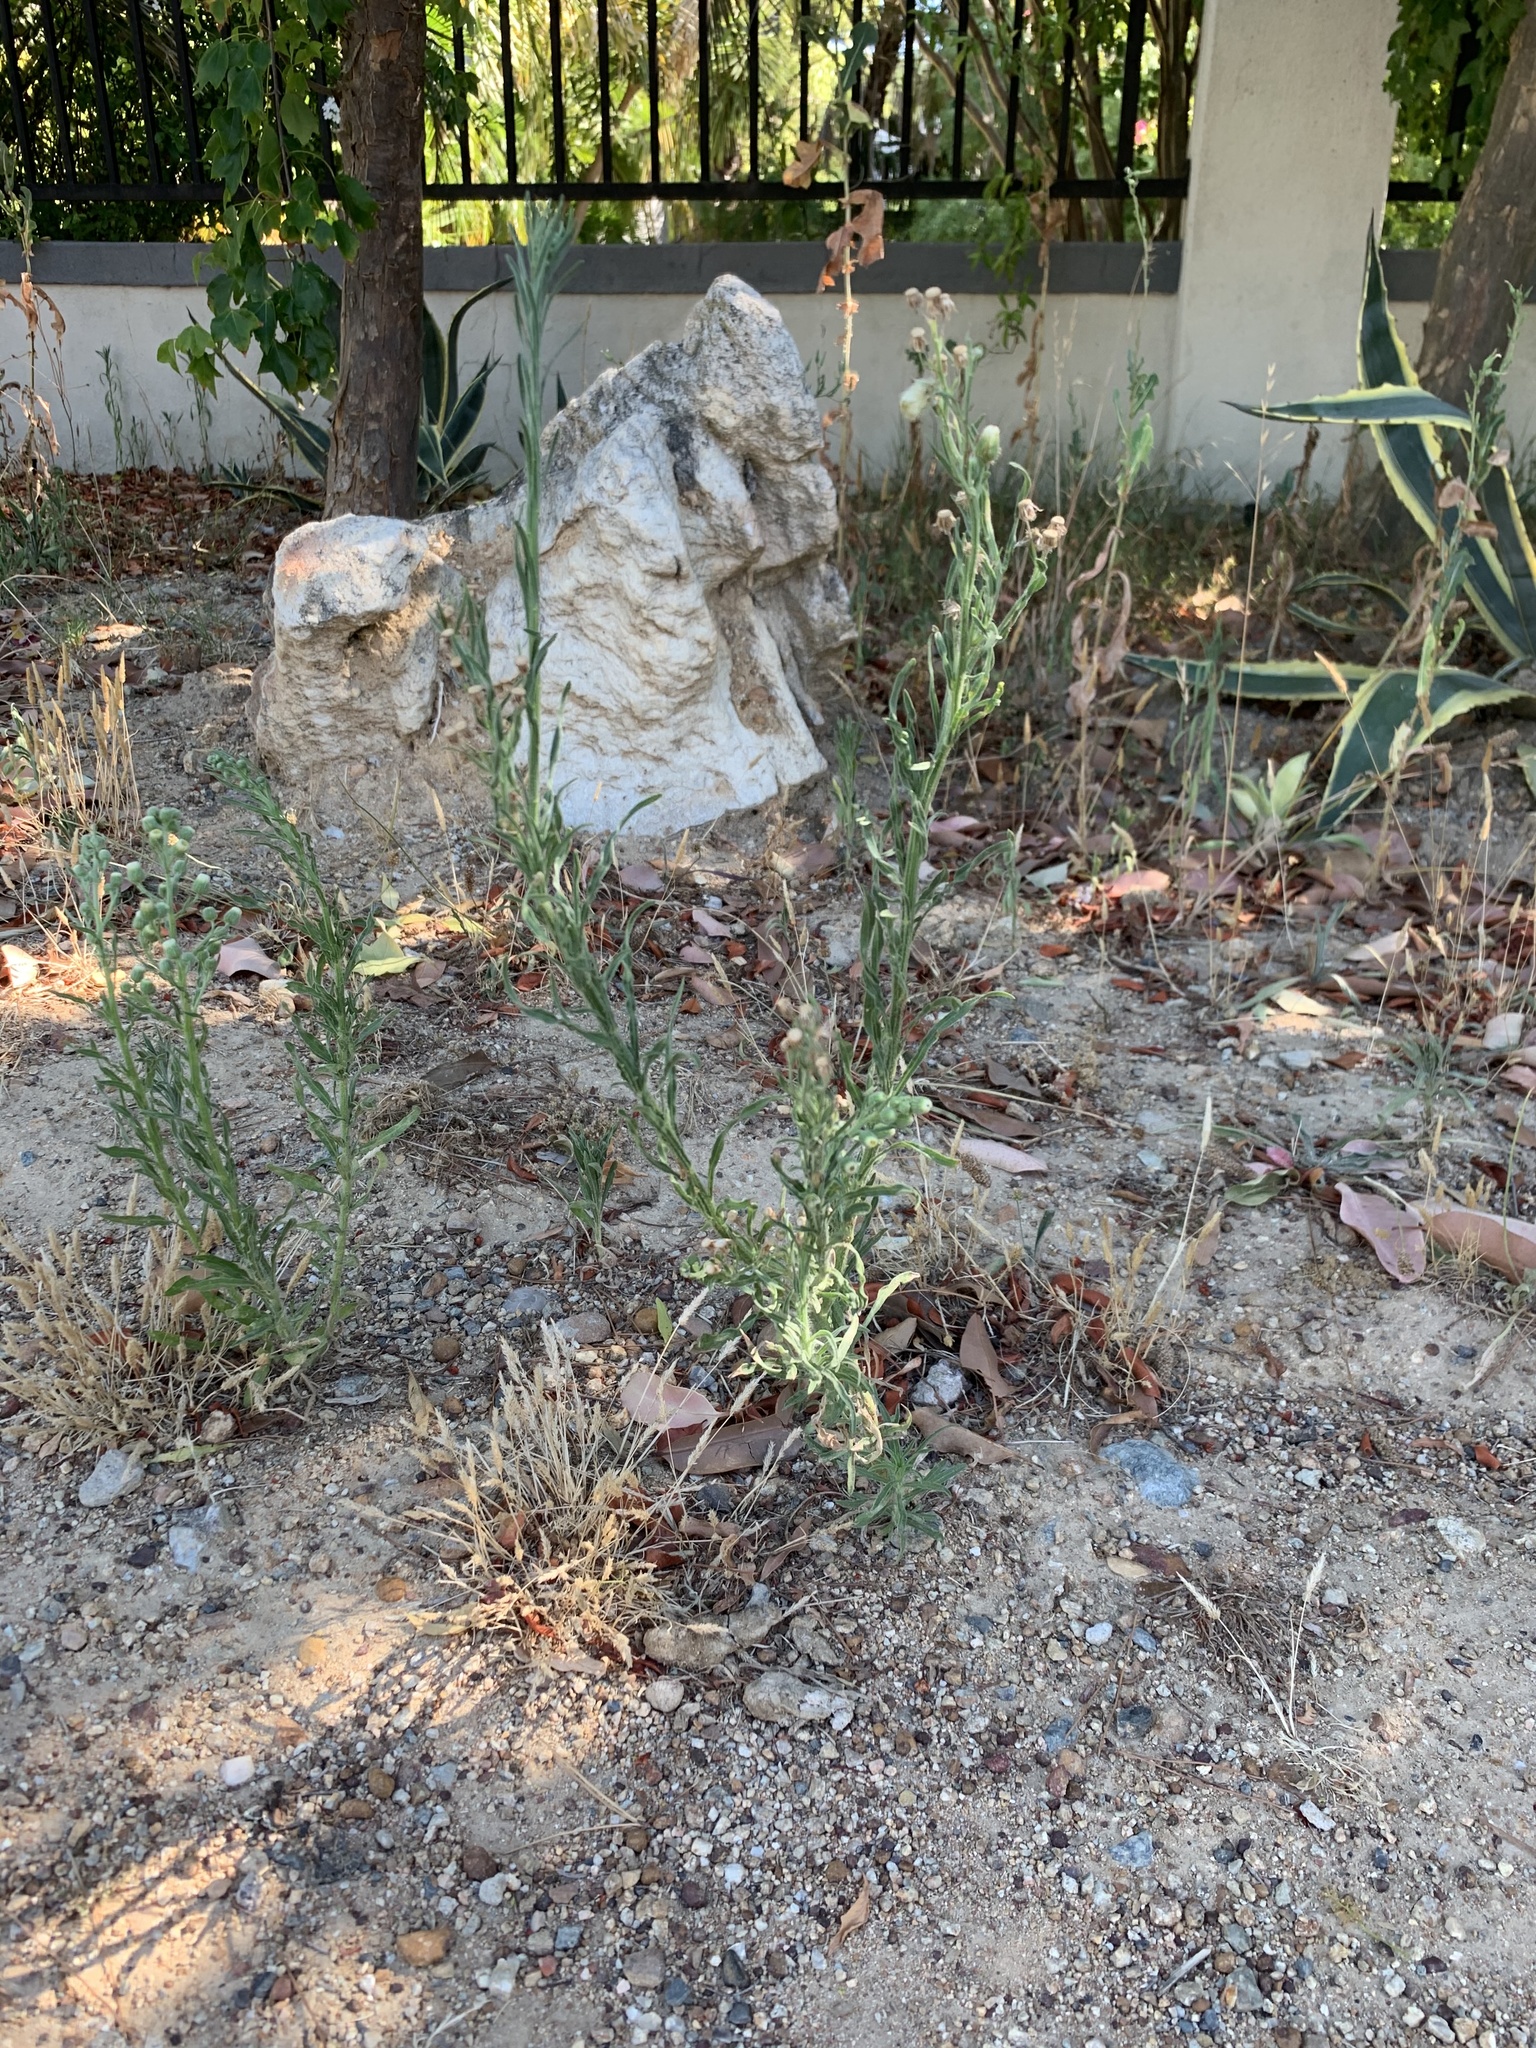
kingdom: Plantae
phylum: Tracheophyta
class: Magnoliopsida
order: Asterales
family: Asteraceae
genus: Erigeron
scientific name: Erigeron bonariensis
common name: Argentine fleabane
